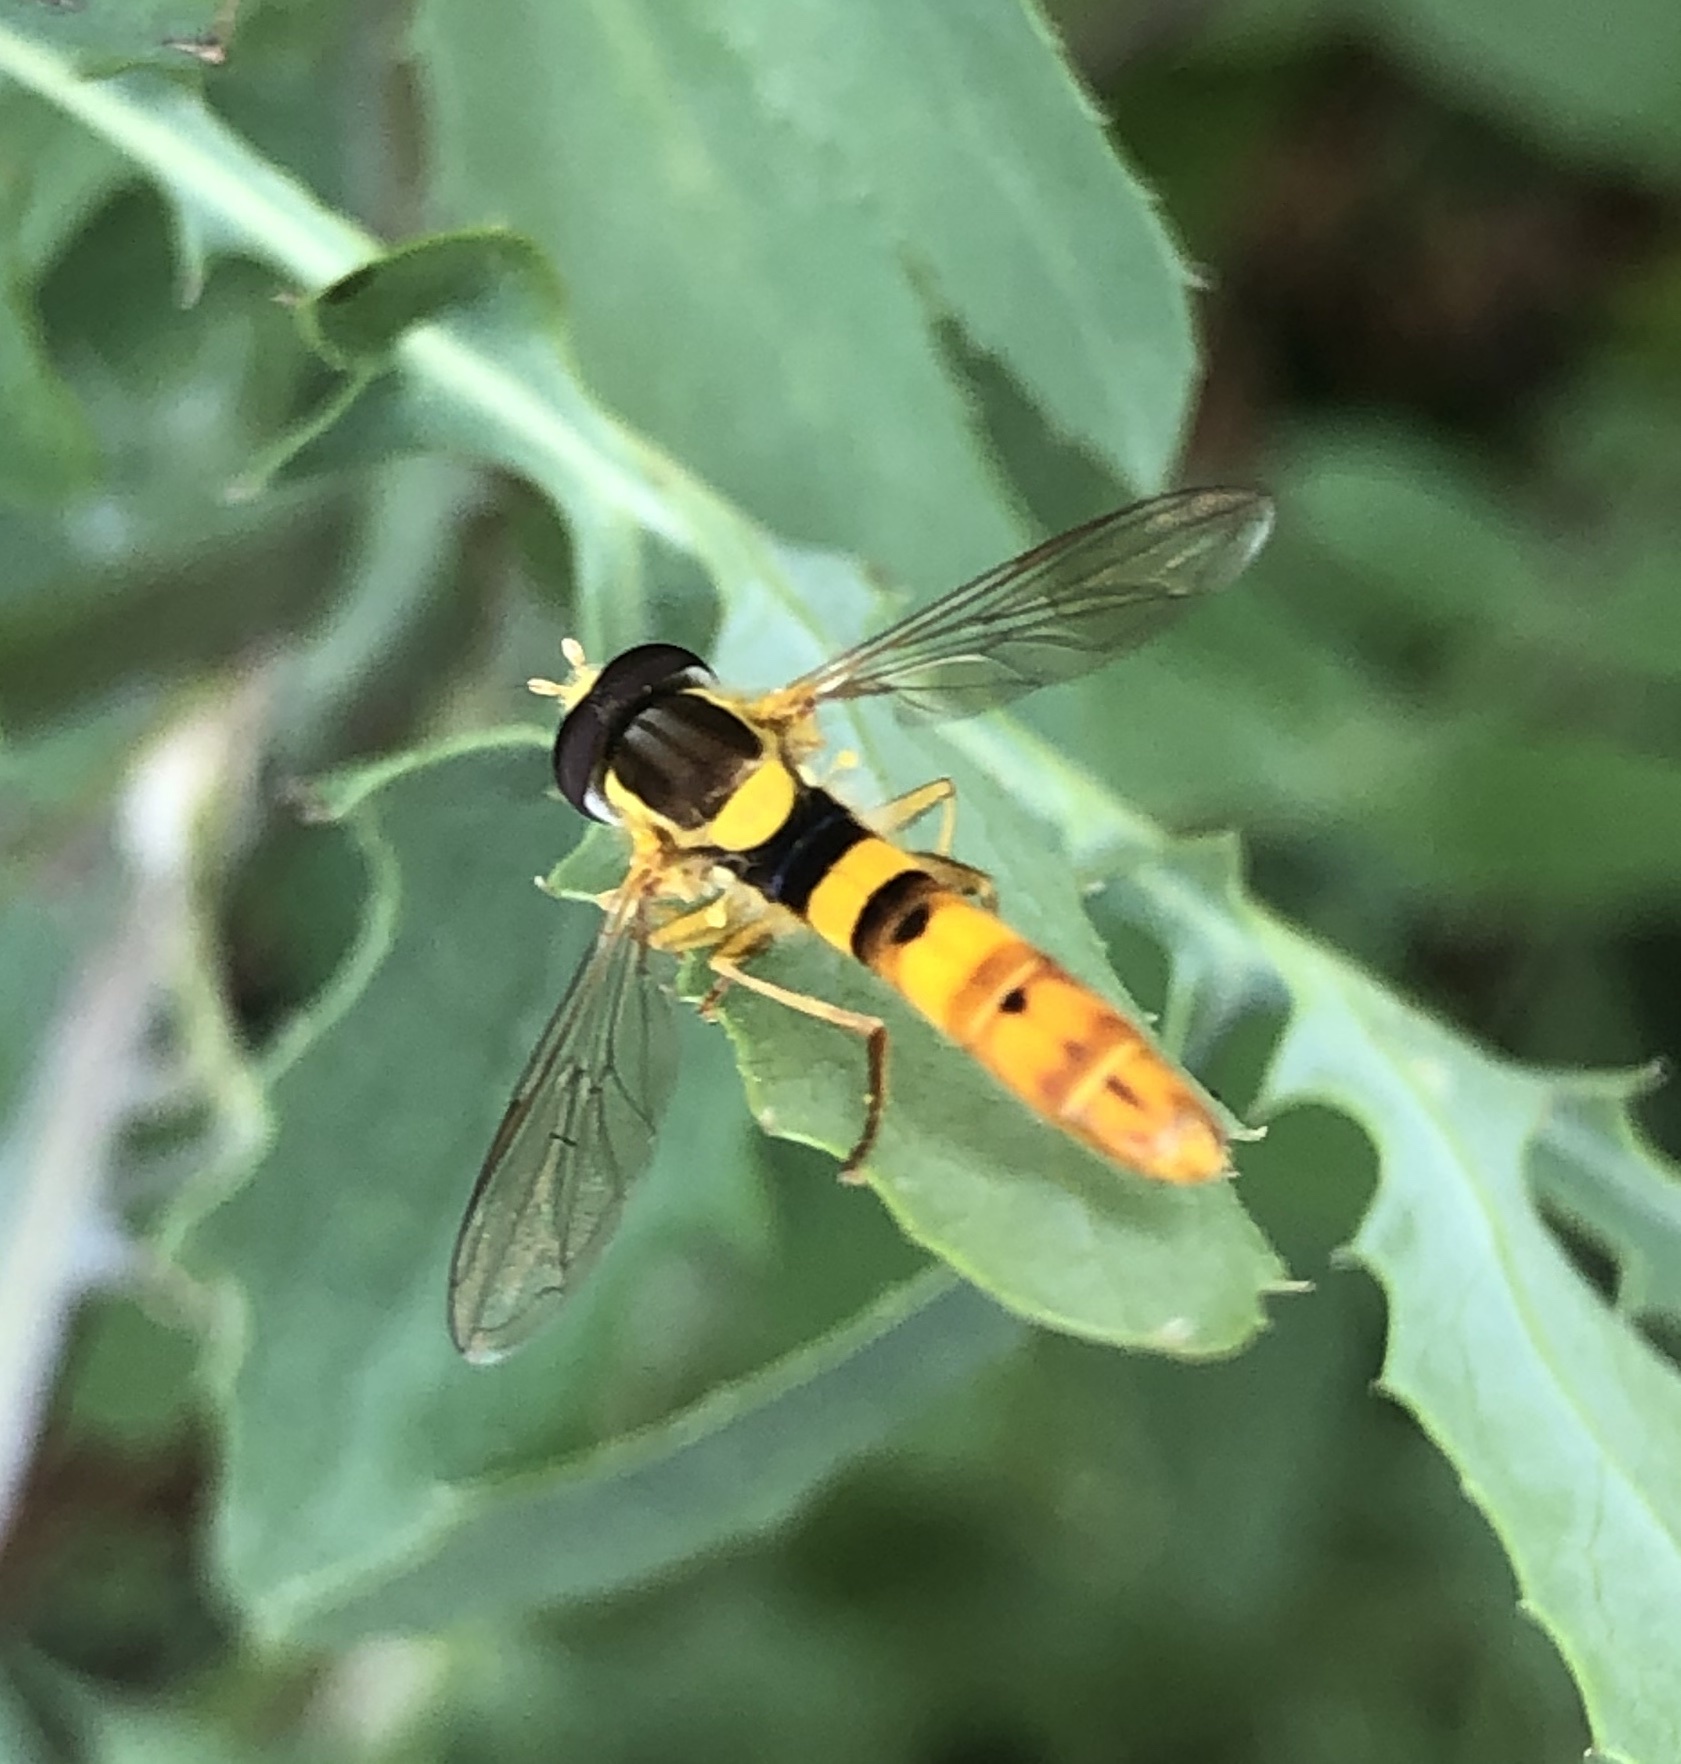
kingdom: Animalia
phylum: Arthropoda
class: Insecta
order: Diptera
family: Syrphidae
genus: Sphaerophoria
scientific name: Sphaerophoria scripta
